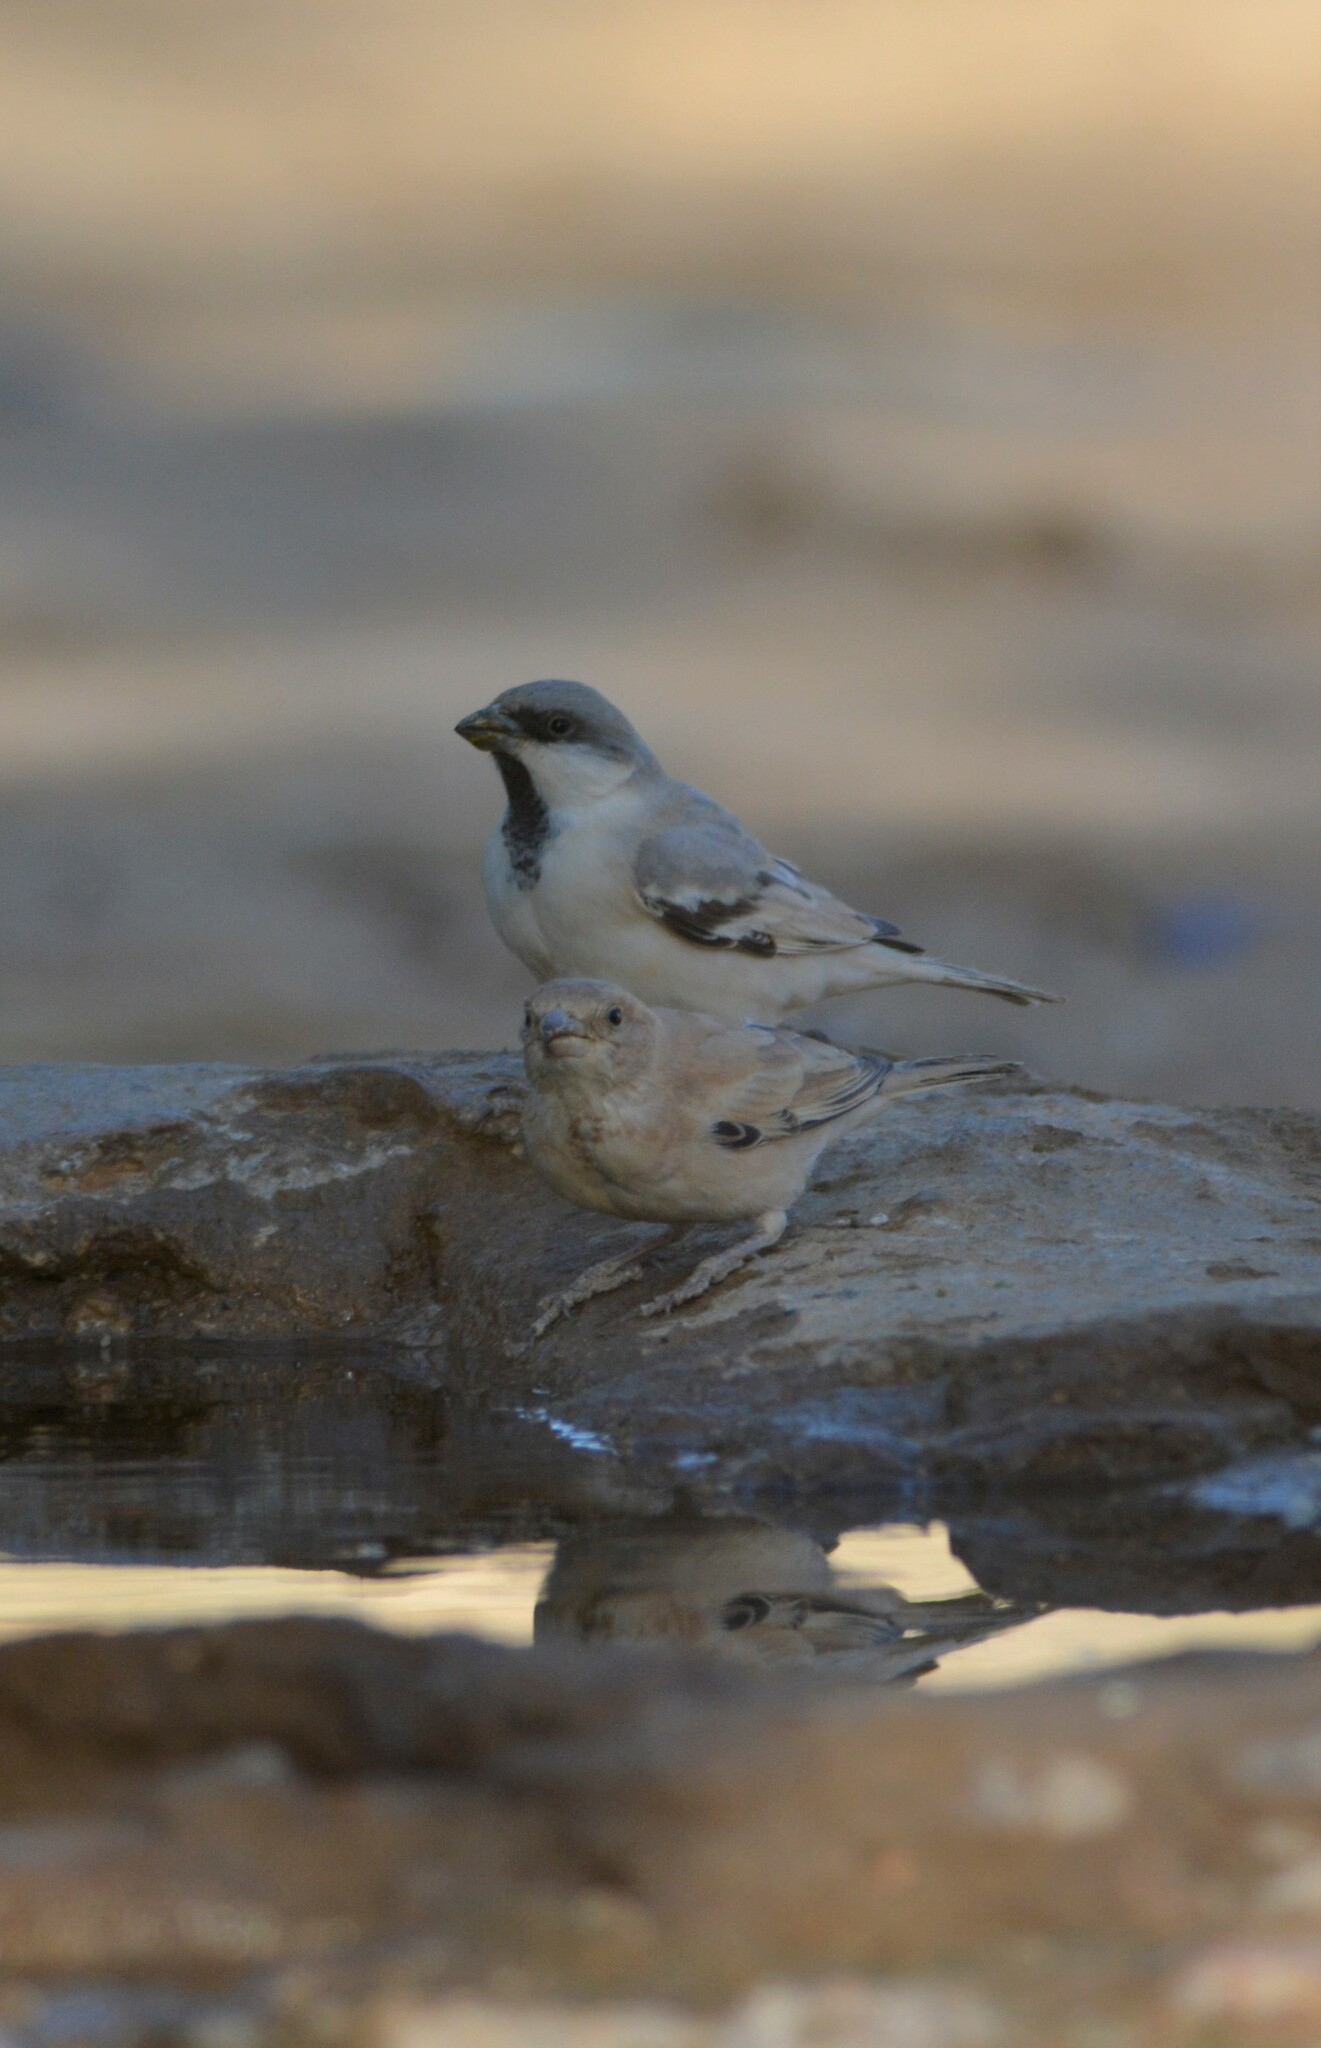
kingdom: Animalia
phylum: Chordata
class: Aves
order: Passeriformes
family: Passeridae
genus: Passer
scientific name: Passer simplex
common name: Desert sparrow
